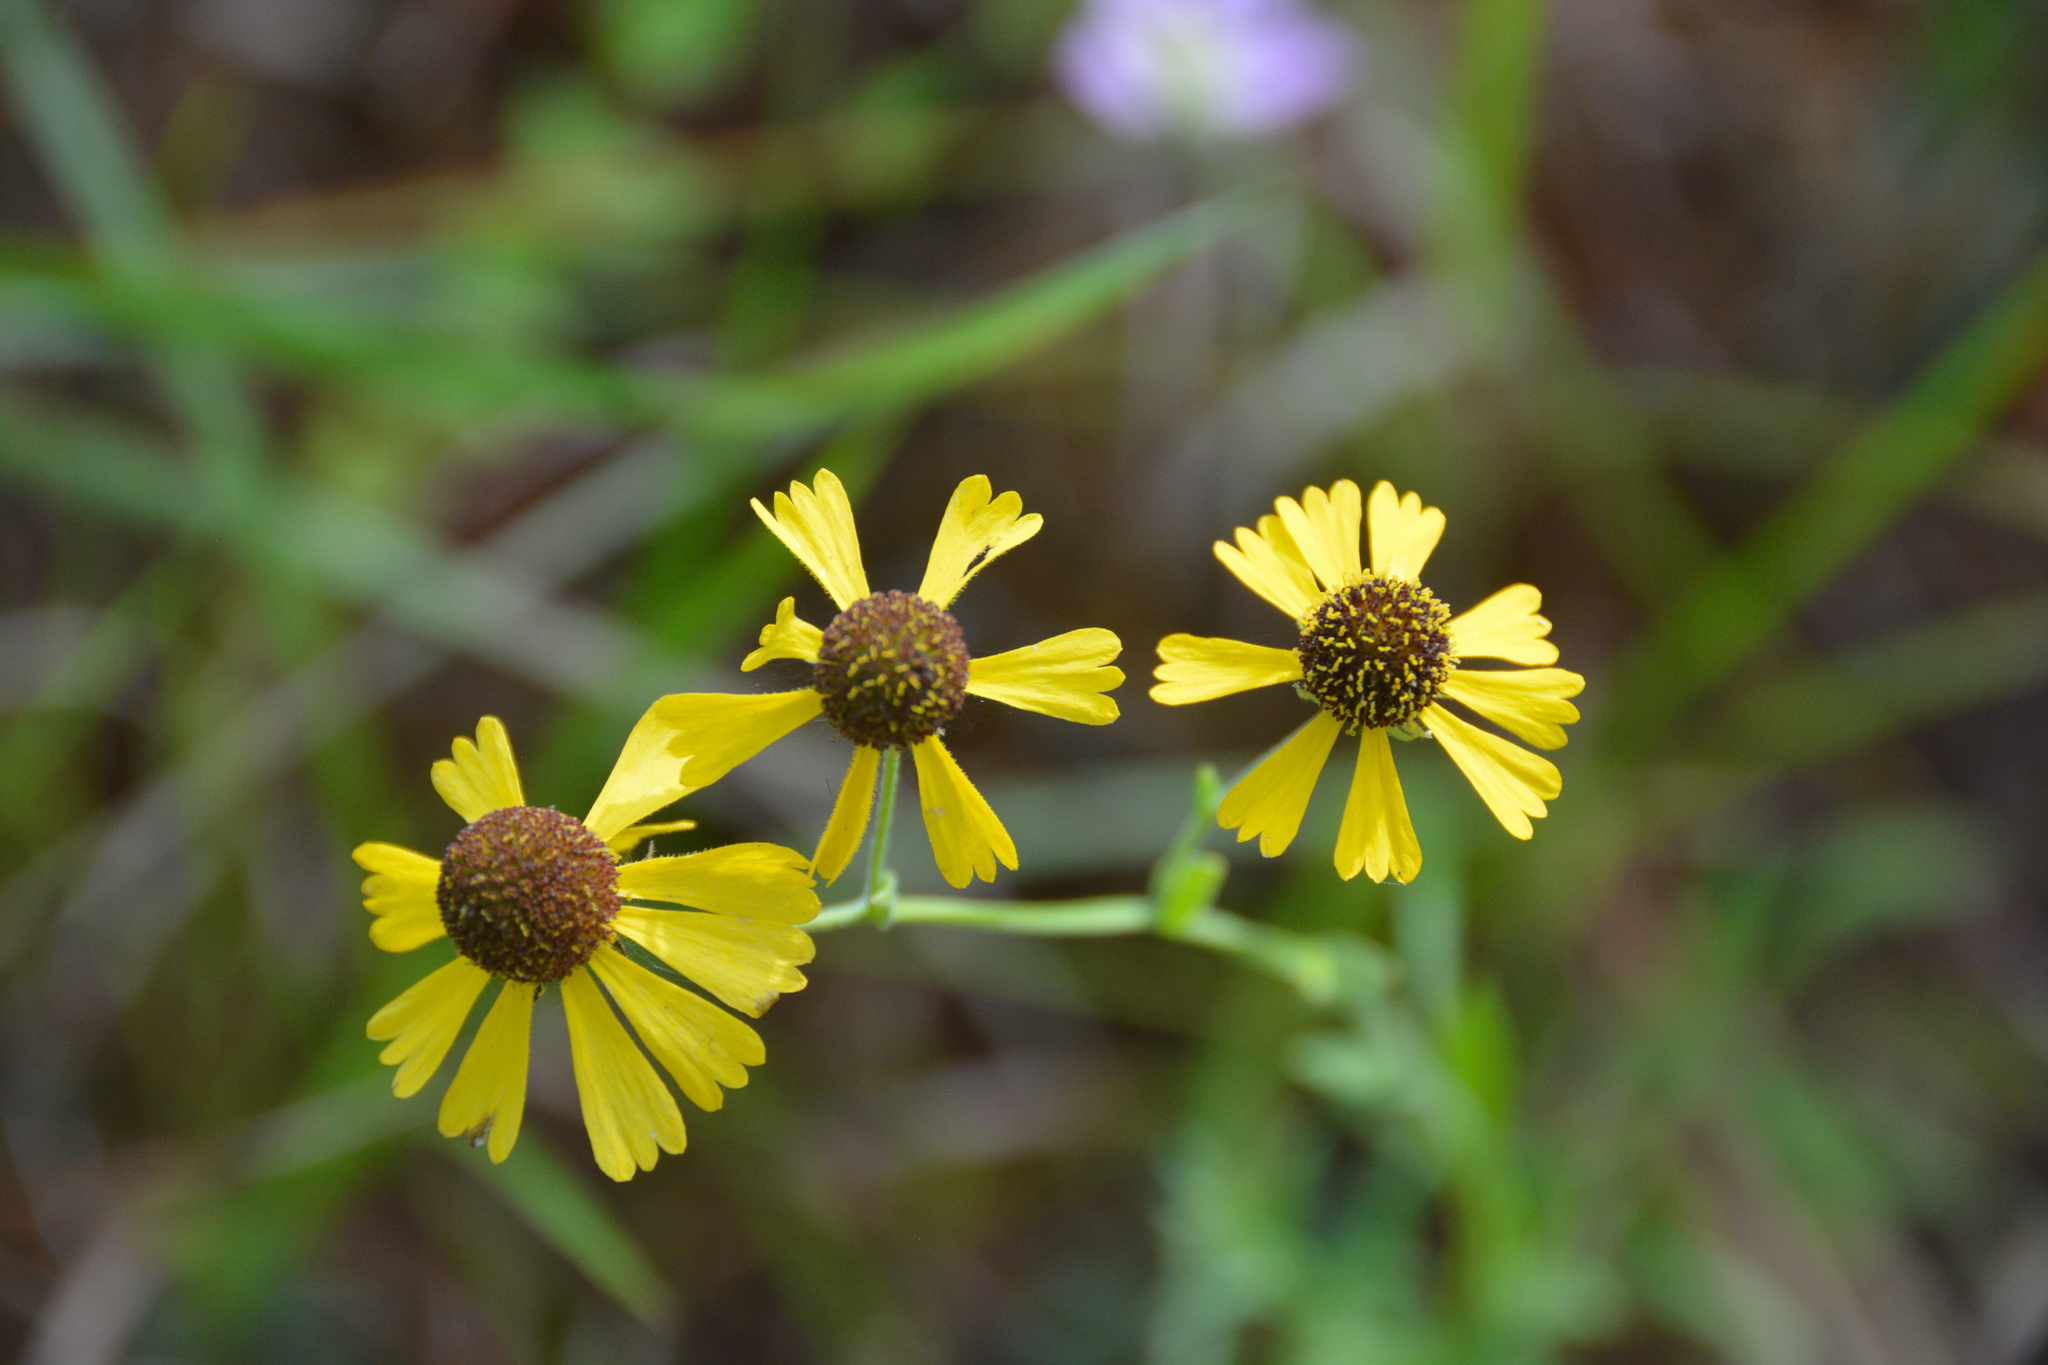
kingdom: Plantae
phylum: Tracheophyta
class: Magnoliopsida
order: Asterales
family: Asteraceae
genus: Helenium
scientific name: Helenium flexuosum
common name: Naked-flowered sneezeweed
